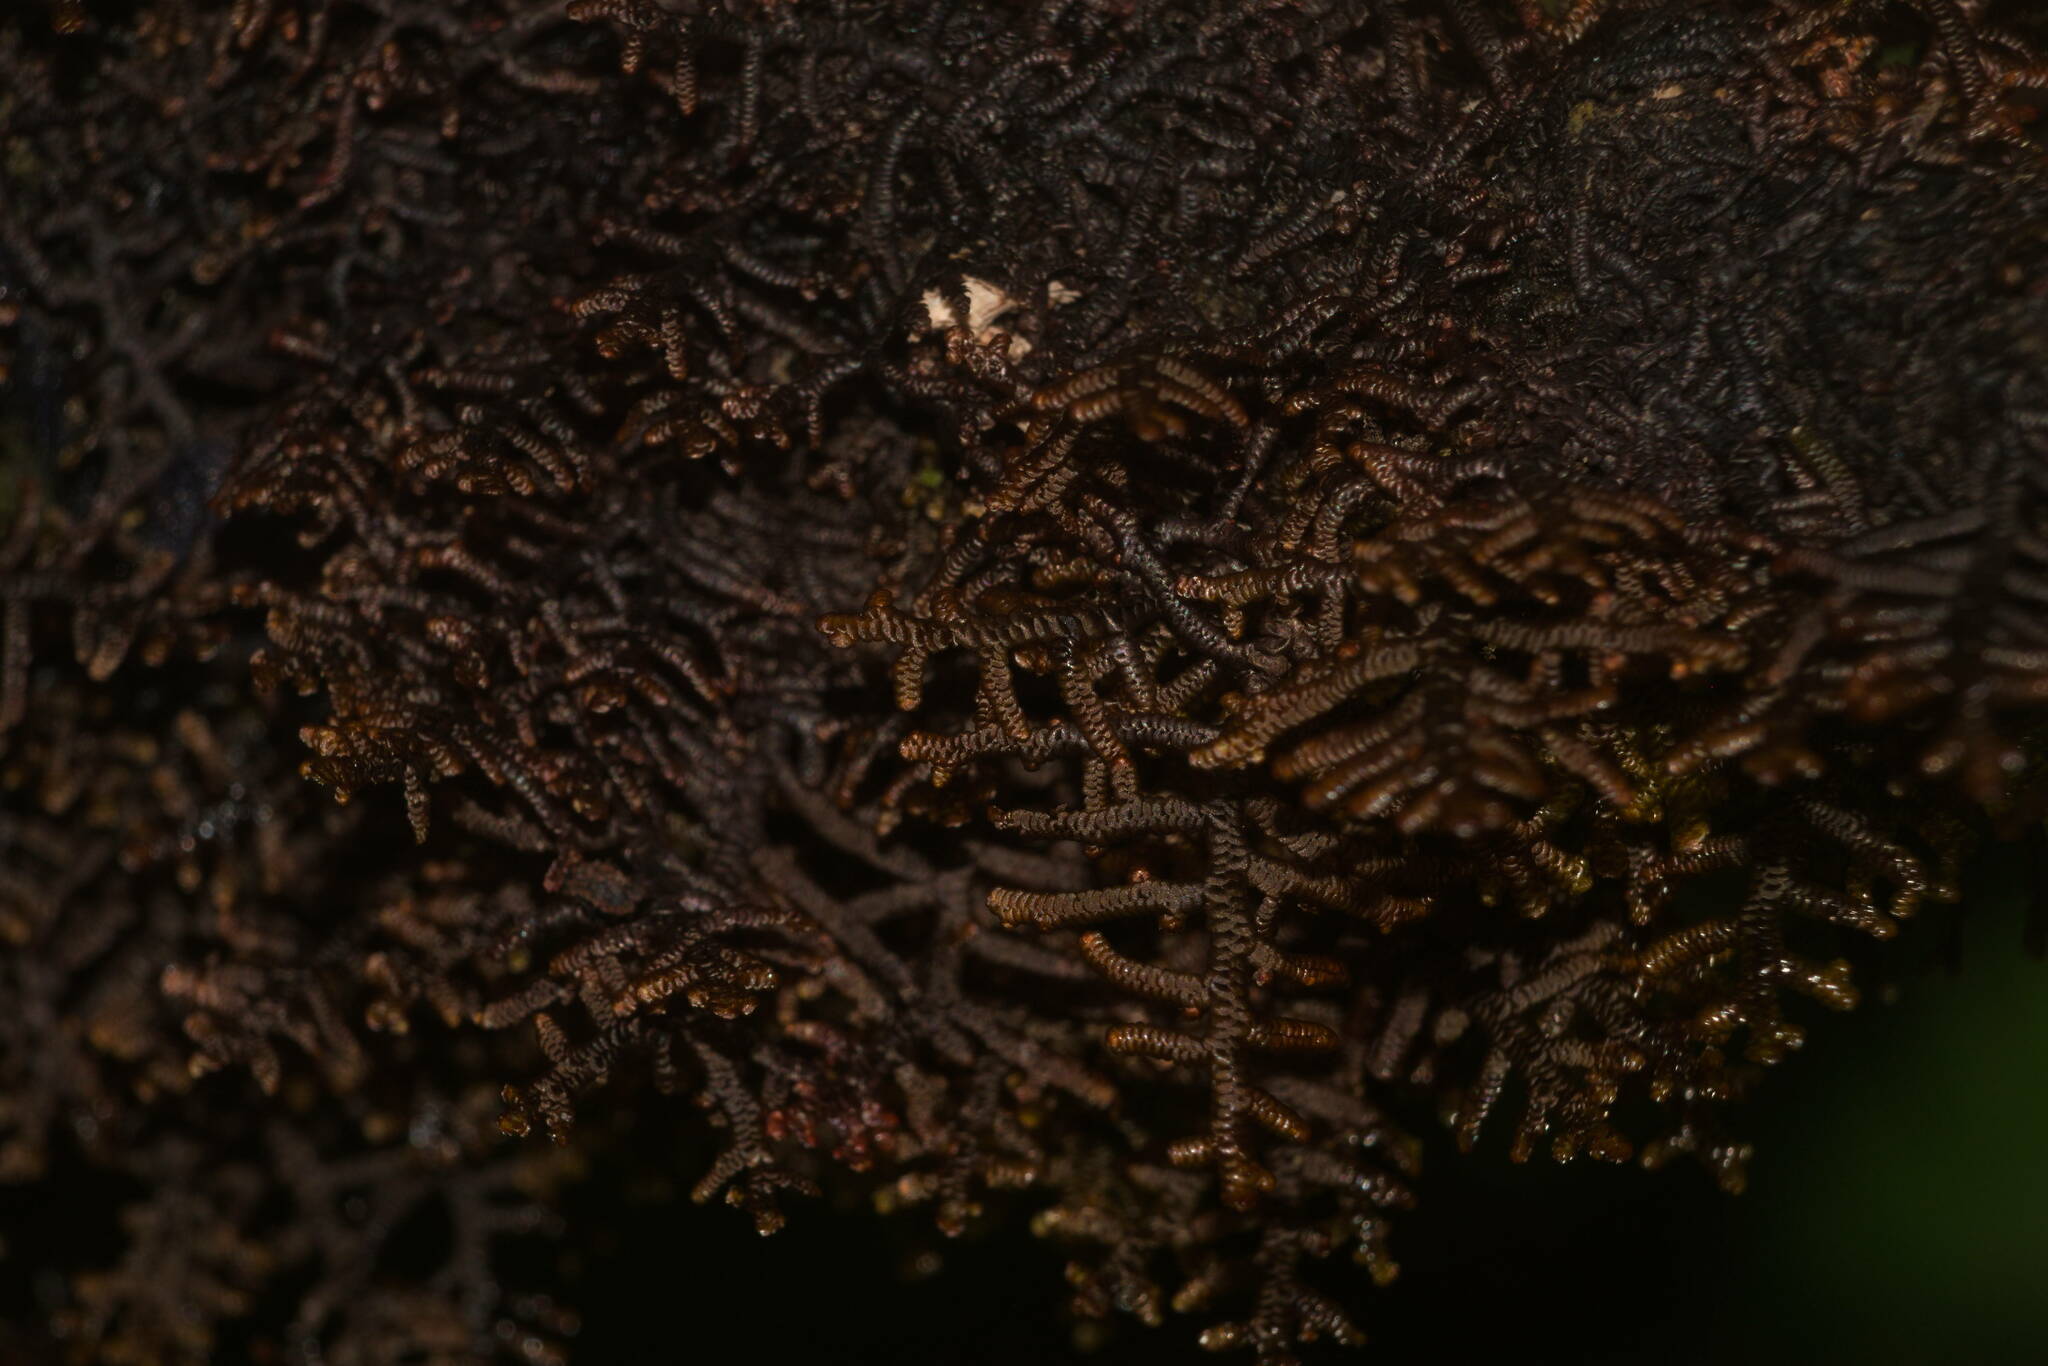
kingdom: Plantae
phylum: Marchantiophyta
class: Jungermanniopsida
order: Porellales
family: Frullaniaceae
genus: Frullania
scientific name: Frullania apiculata
